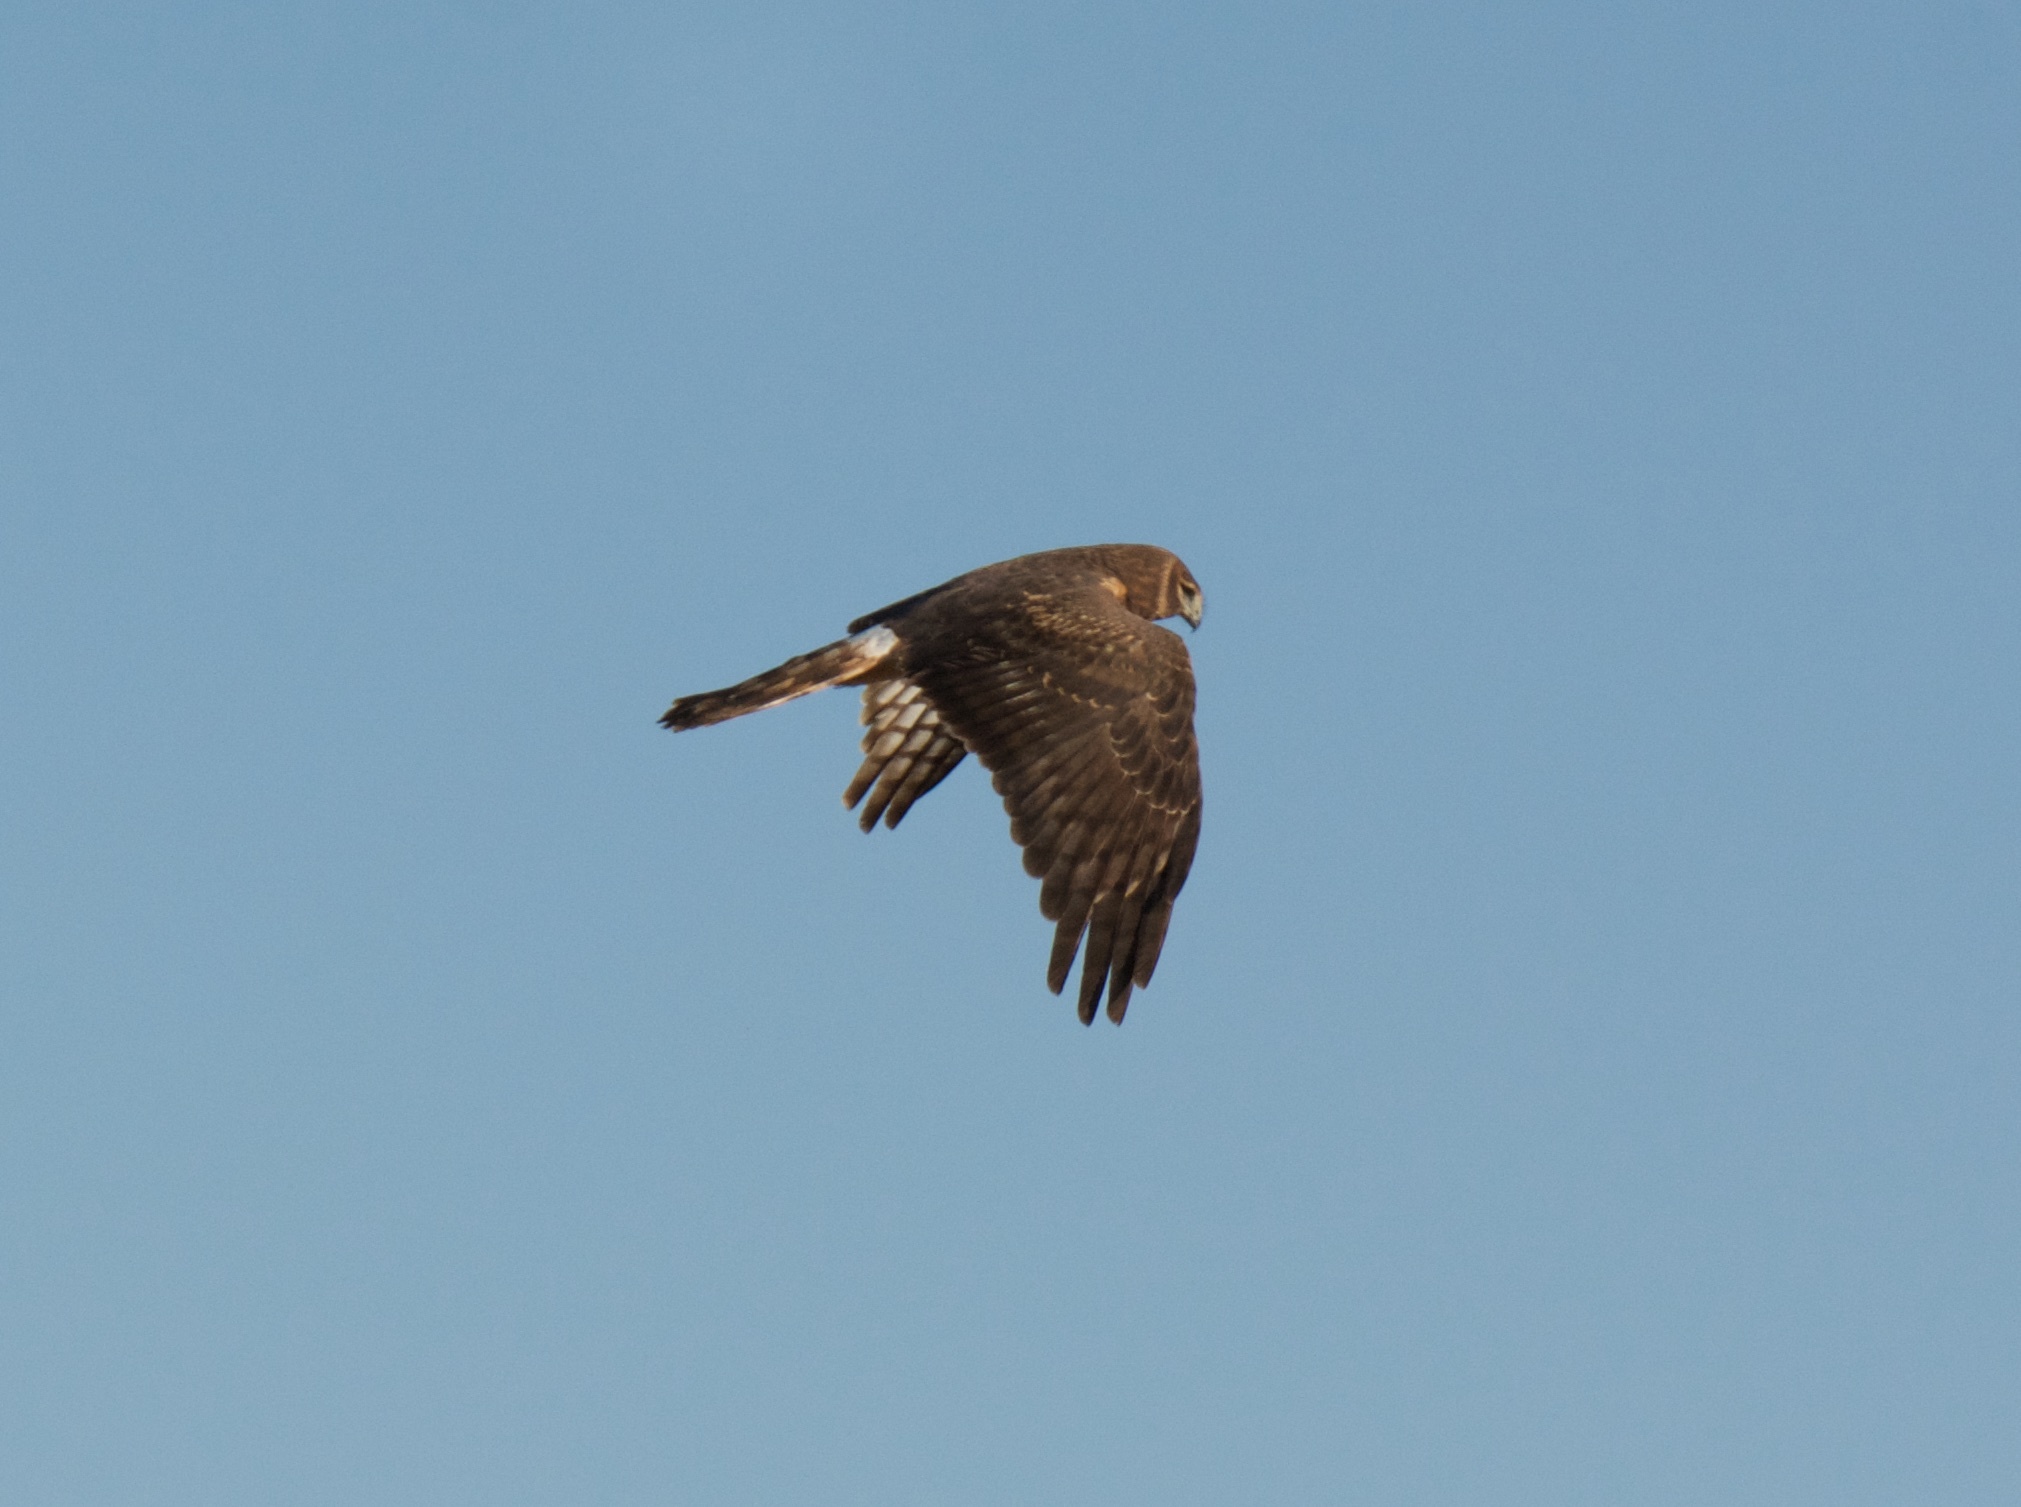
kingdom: Animalia
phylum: Chordata
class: Aves
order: Accipitriformes
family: Accipitridae
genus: Circus
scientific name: Circus cyaneus
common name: Hen harrier
